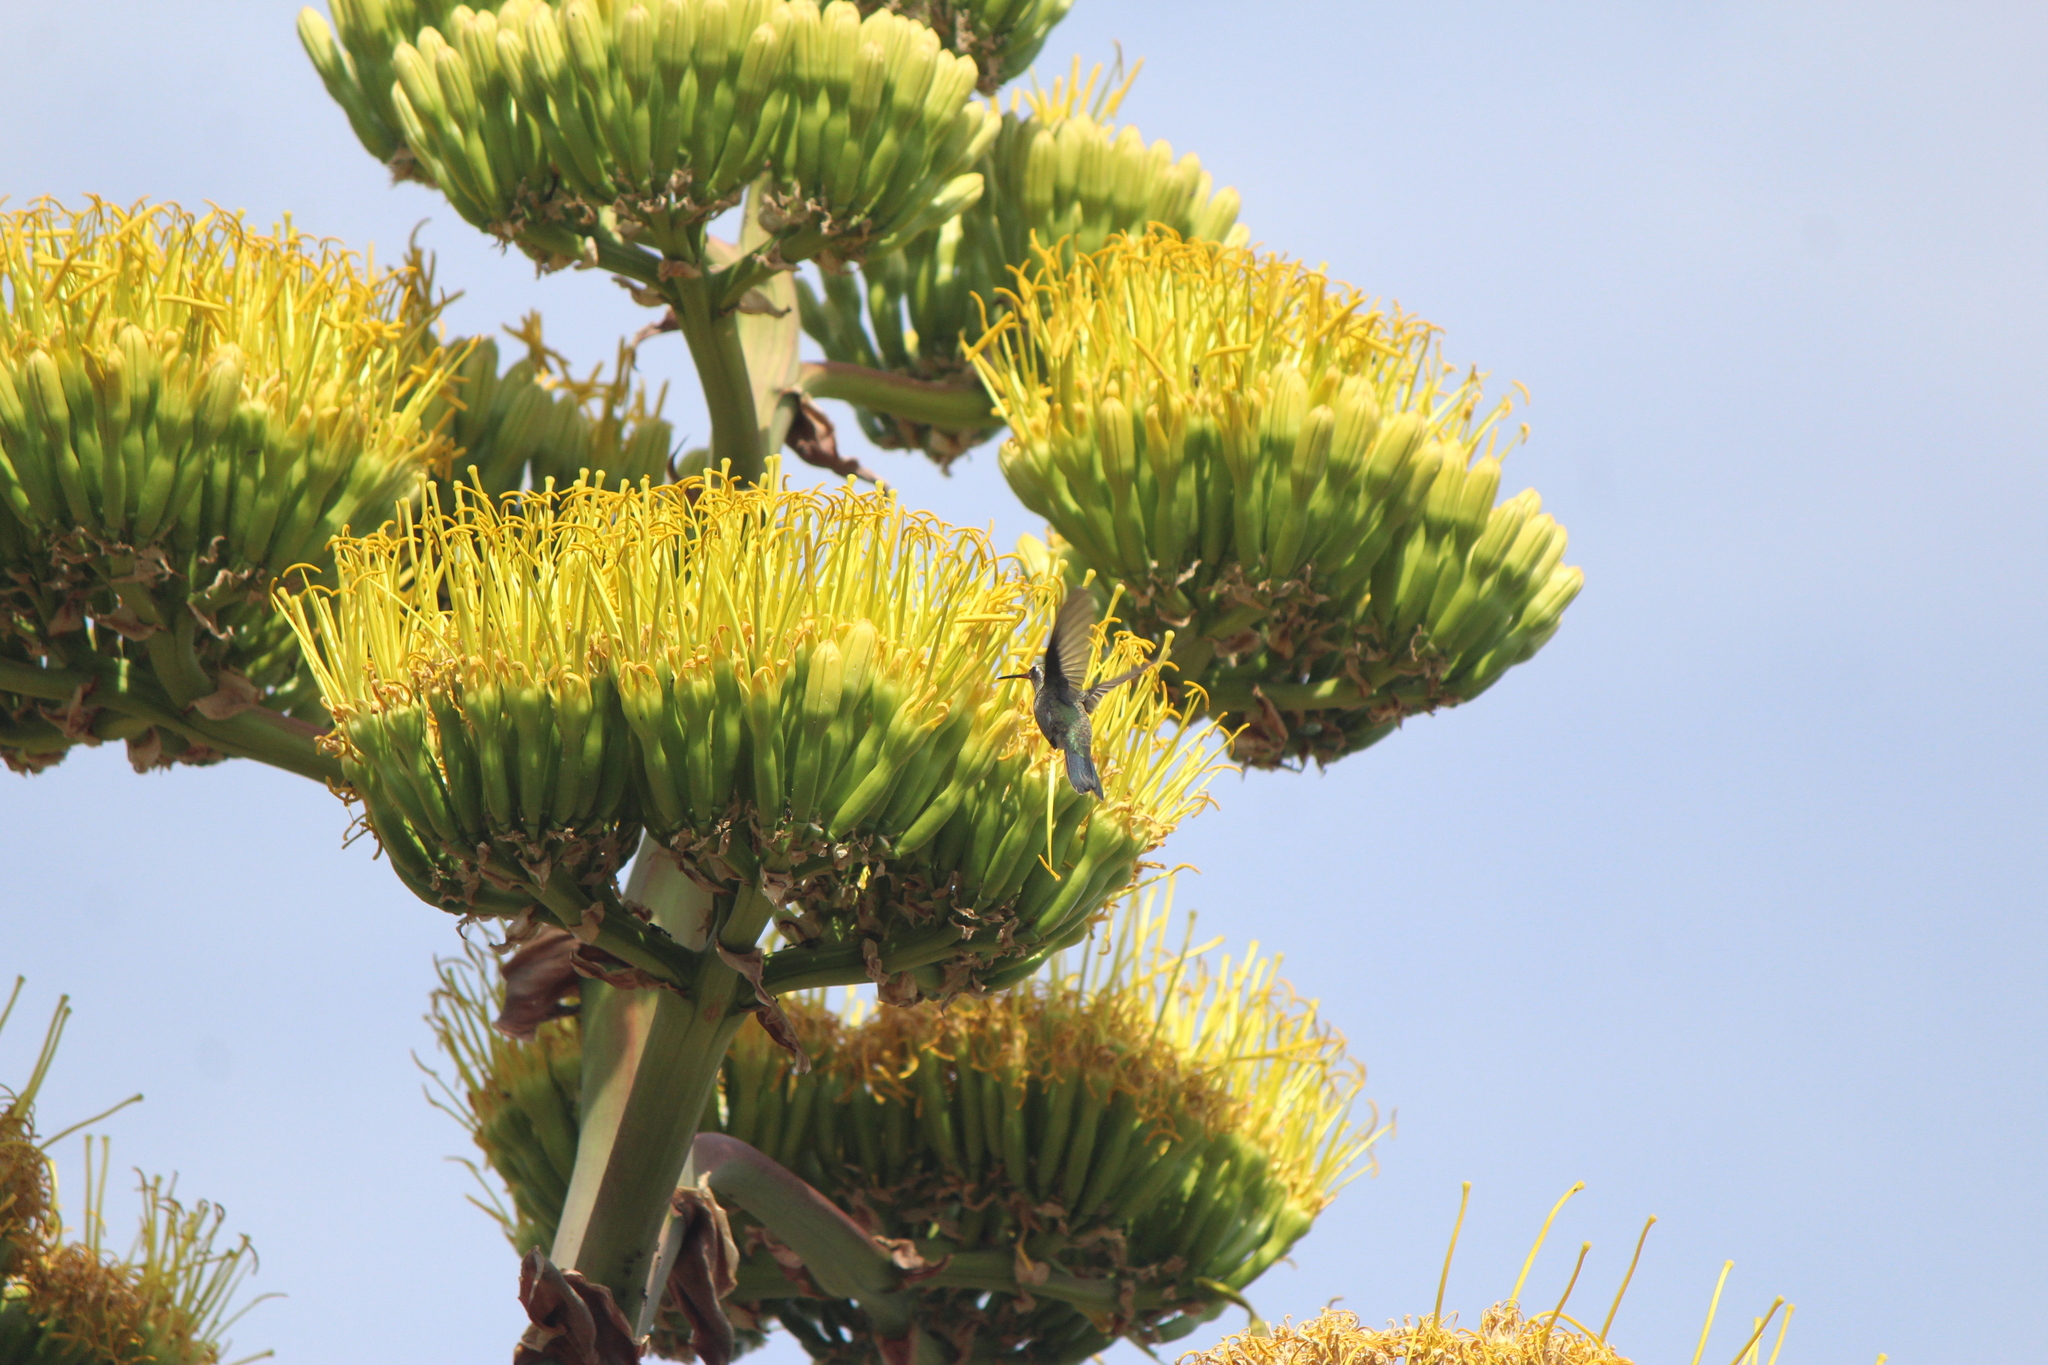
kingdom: Animalia
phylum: Chordata
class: Aves
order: Apodiformes
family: Trochilidae
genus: Cynanthus
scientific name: Cynanthus latirostris
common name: Broad-billed hummingbird
